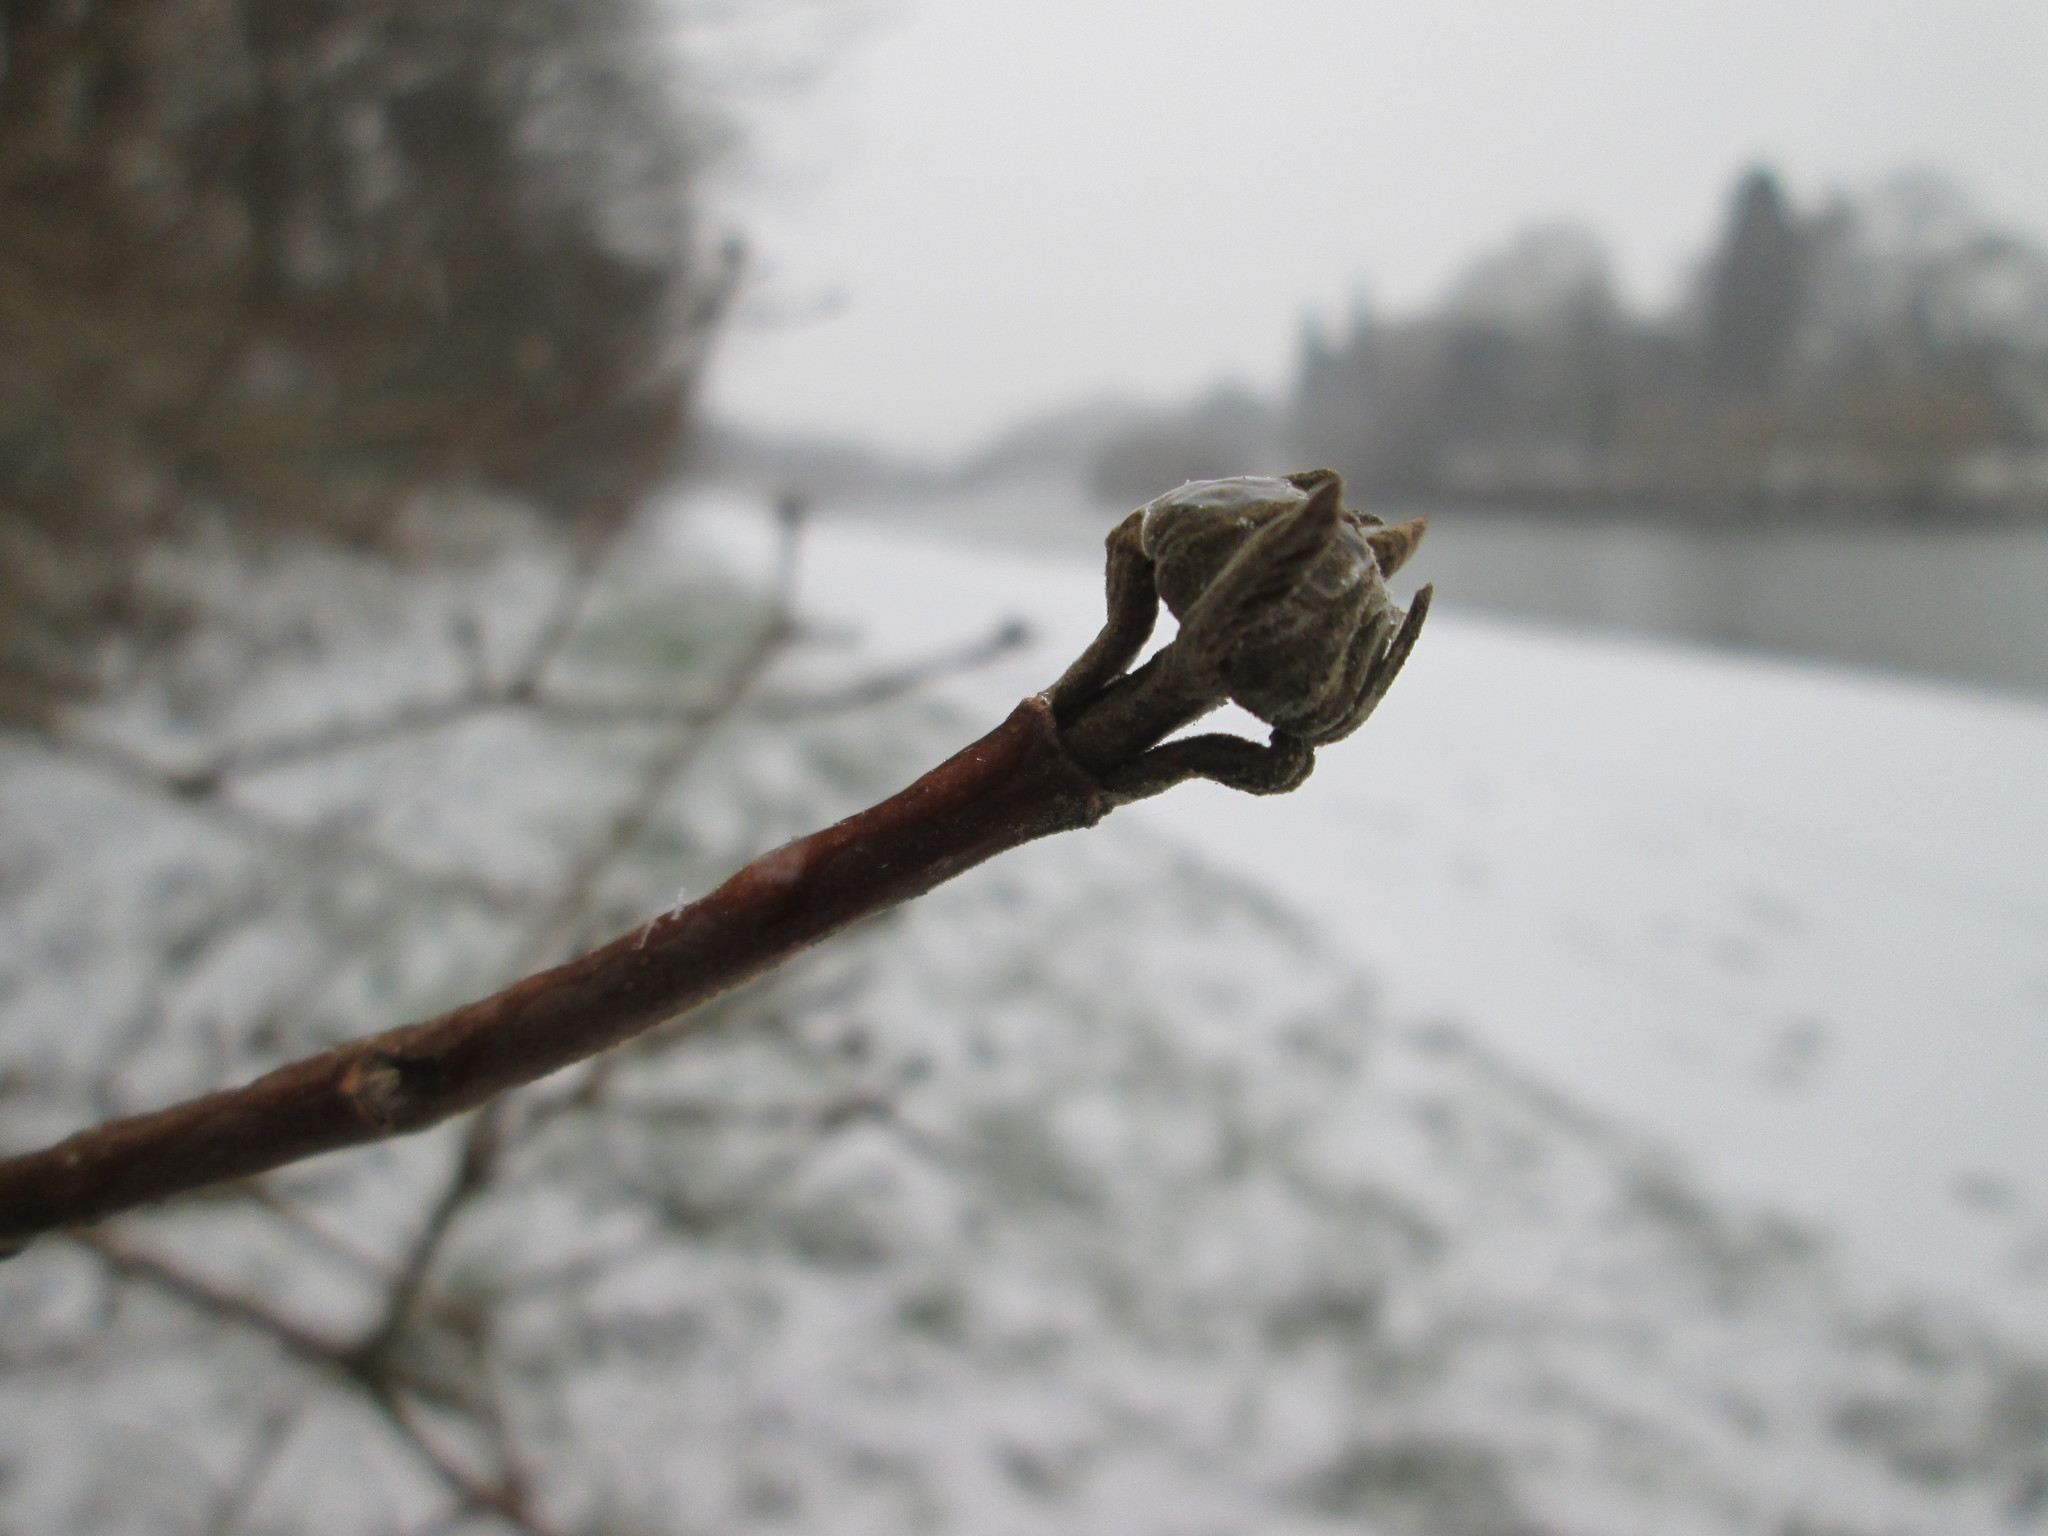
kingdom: Plantae
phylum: Tracheophyta
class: Magnoliopsida
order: Dipsacales
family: Viburnaceae
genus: Viburnum
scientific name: Viburnum lantana
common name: Wayfaring tree
